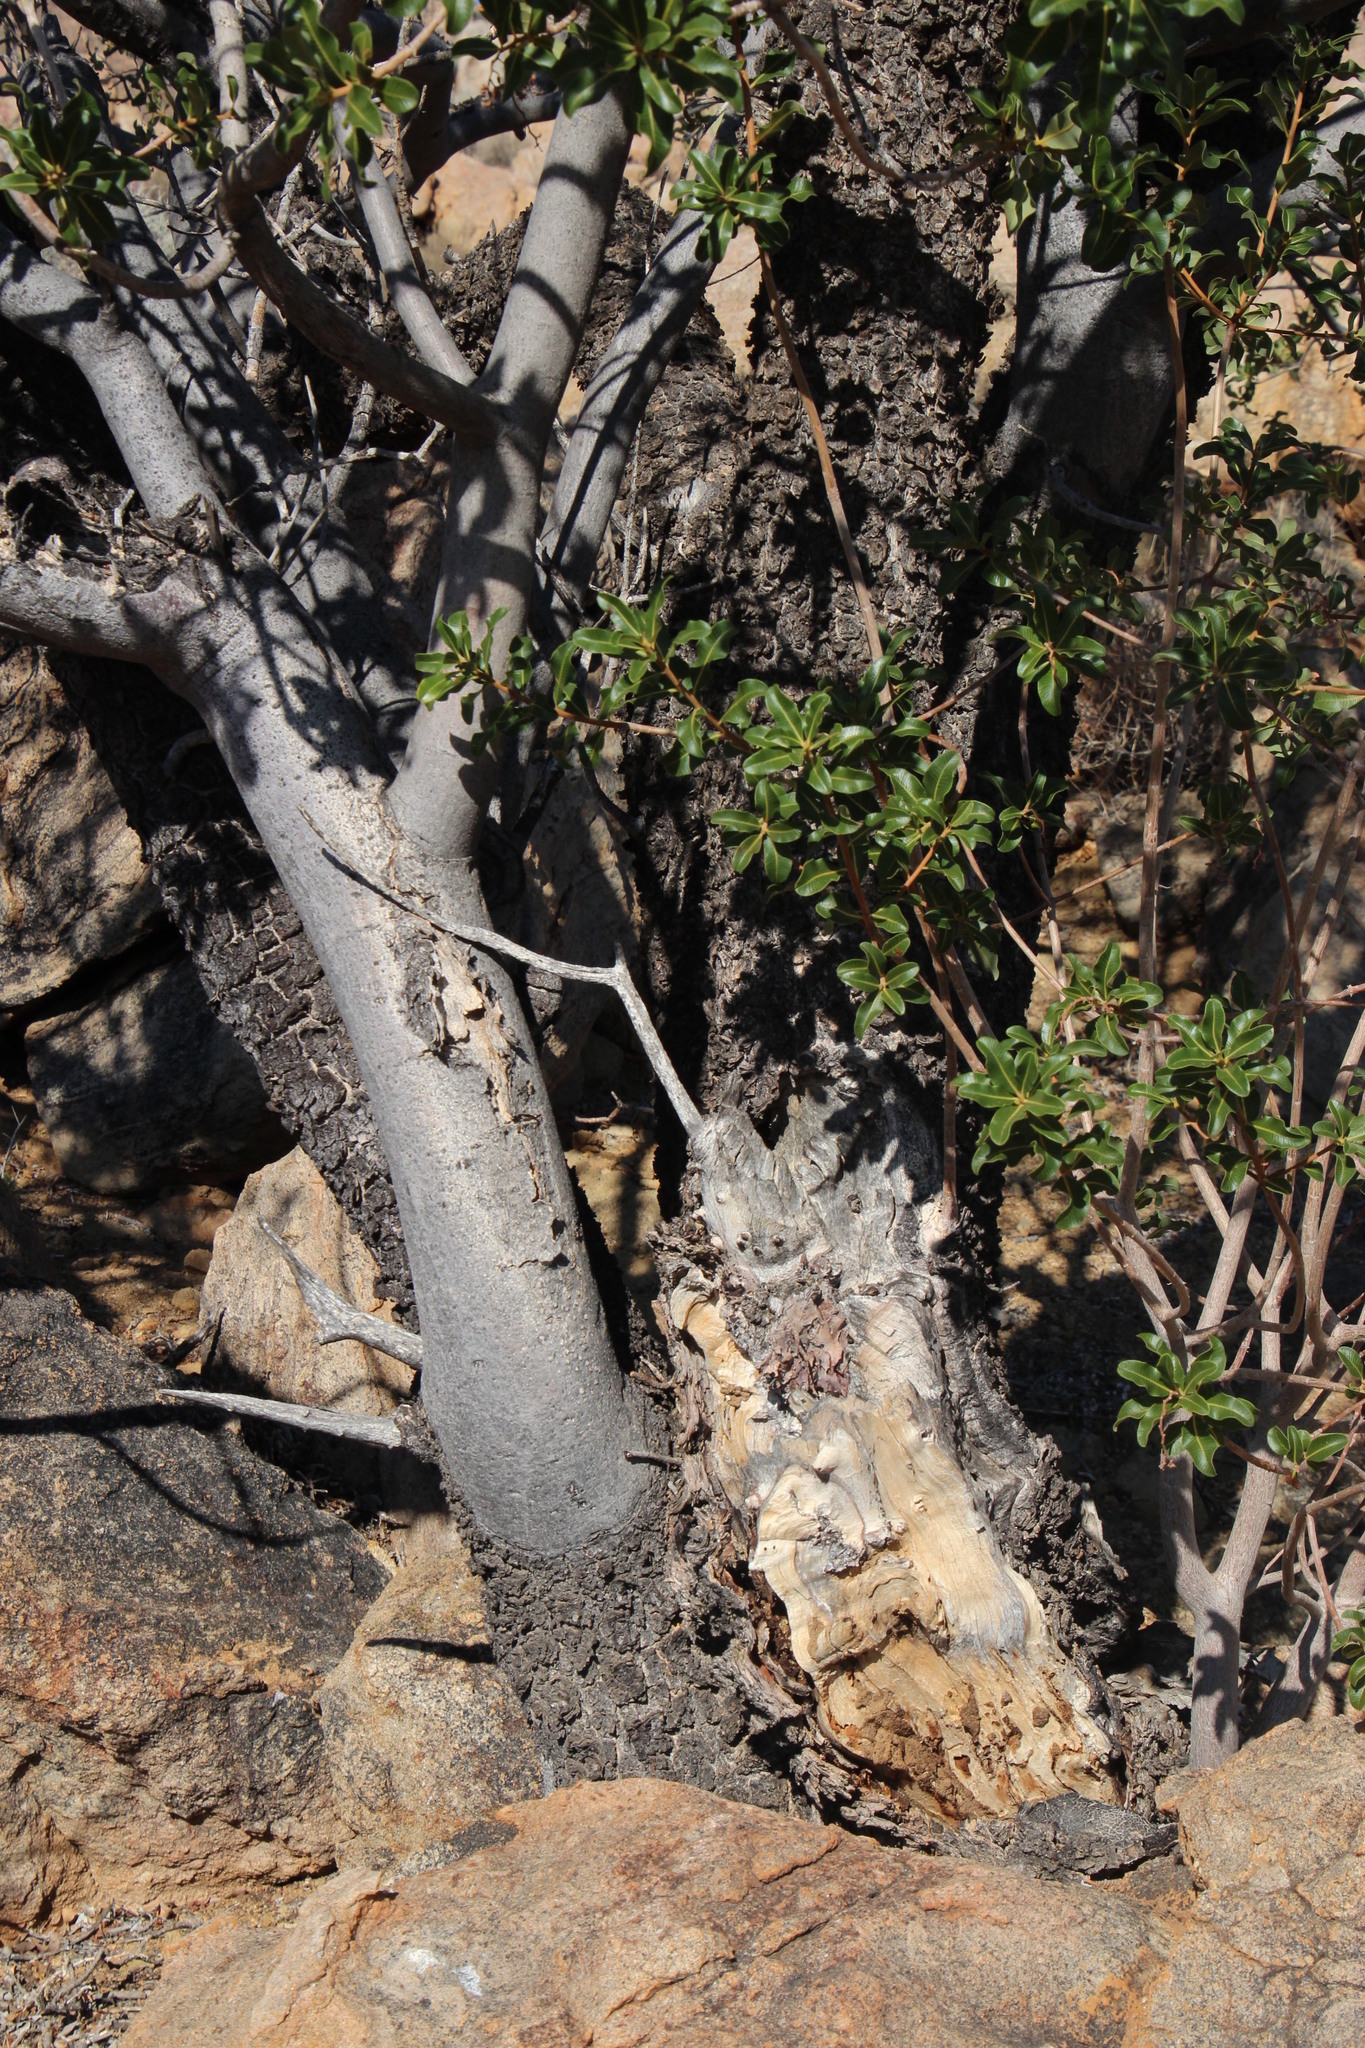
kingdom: Plantae
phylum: Tracheophyta
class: Magnoliopsida
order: Sapindales
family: Anacardiaceae
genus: Ozoroa
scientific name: Ozoroa dispar
